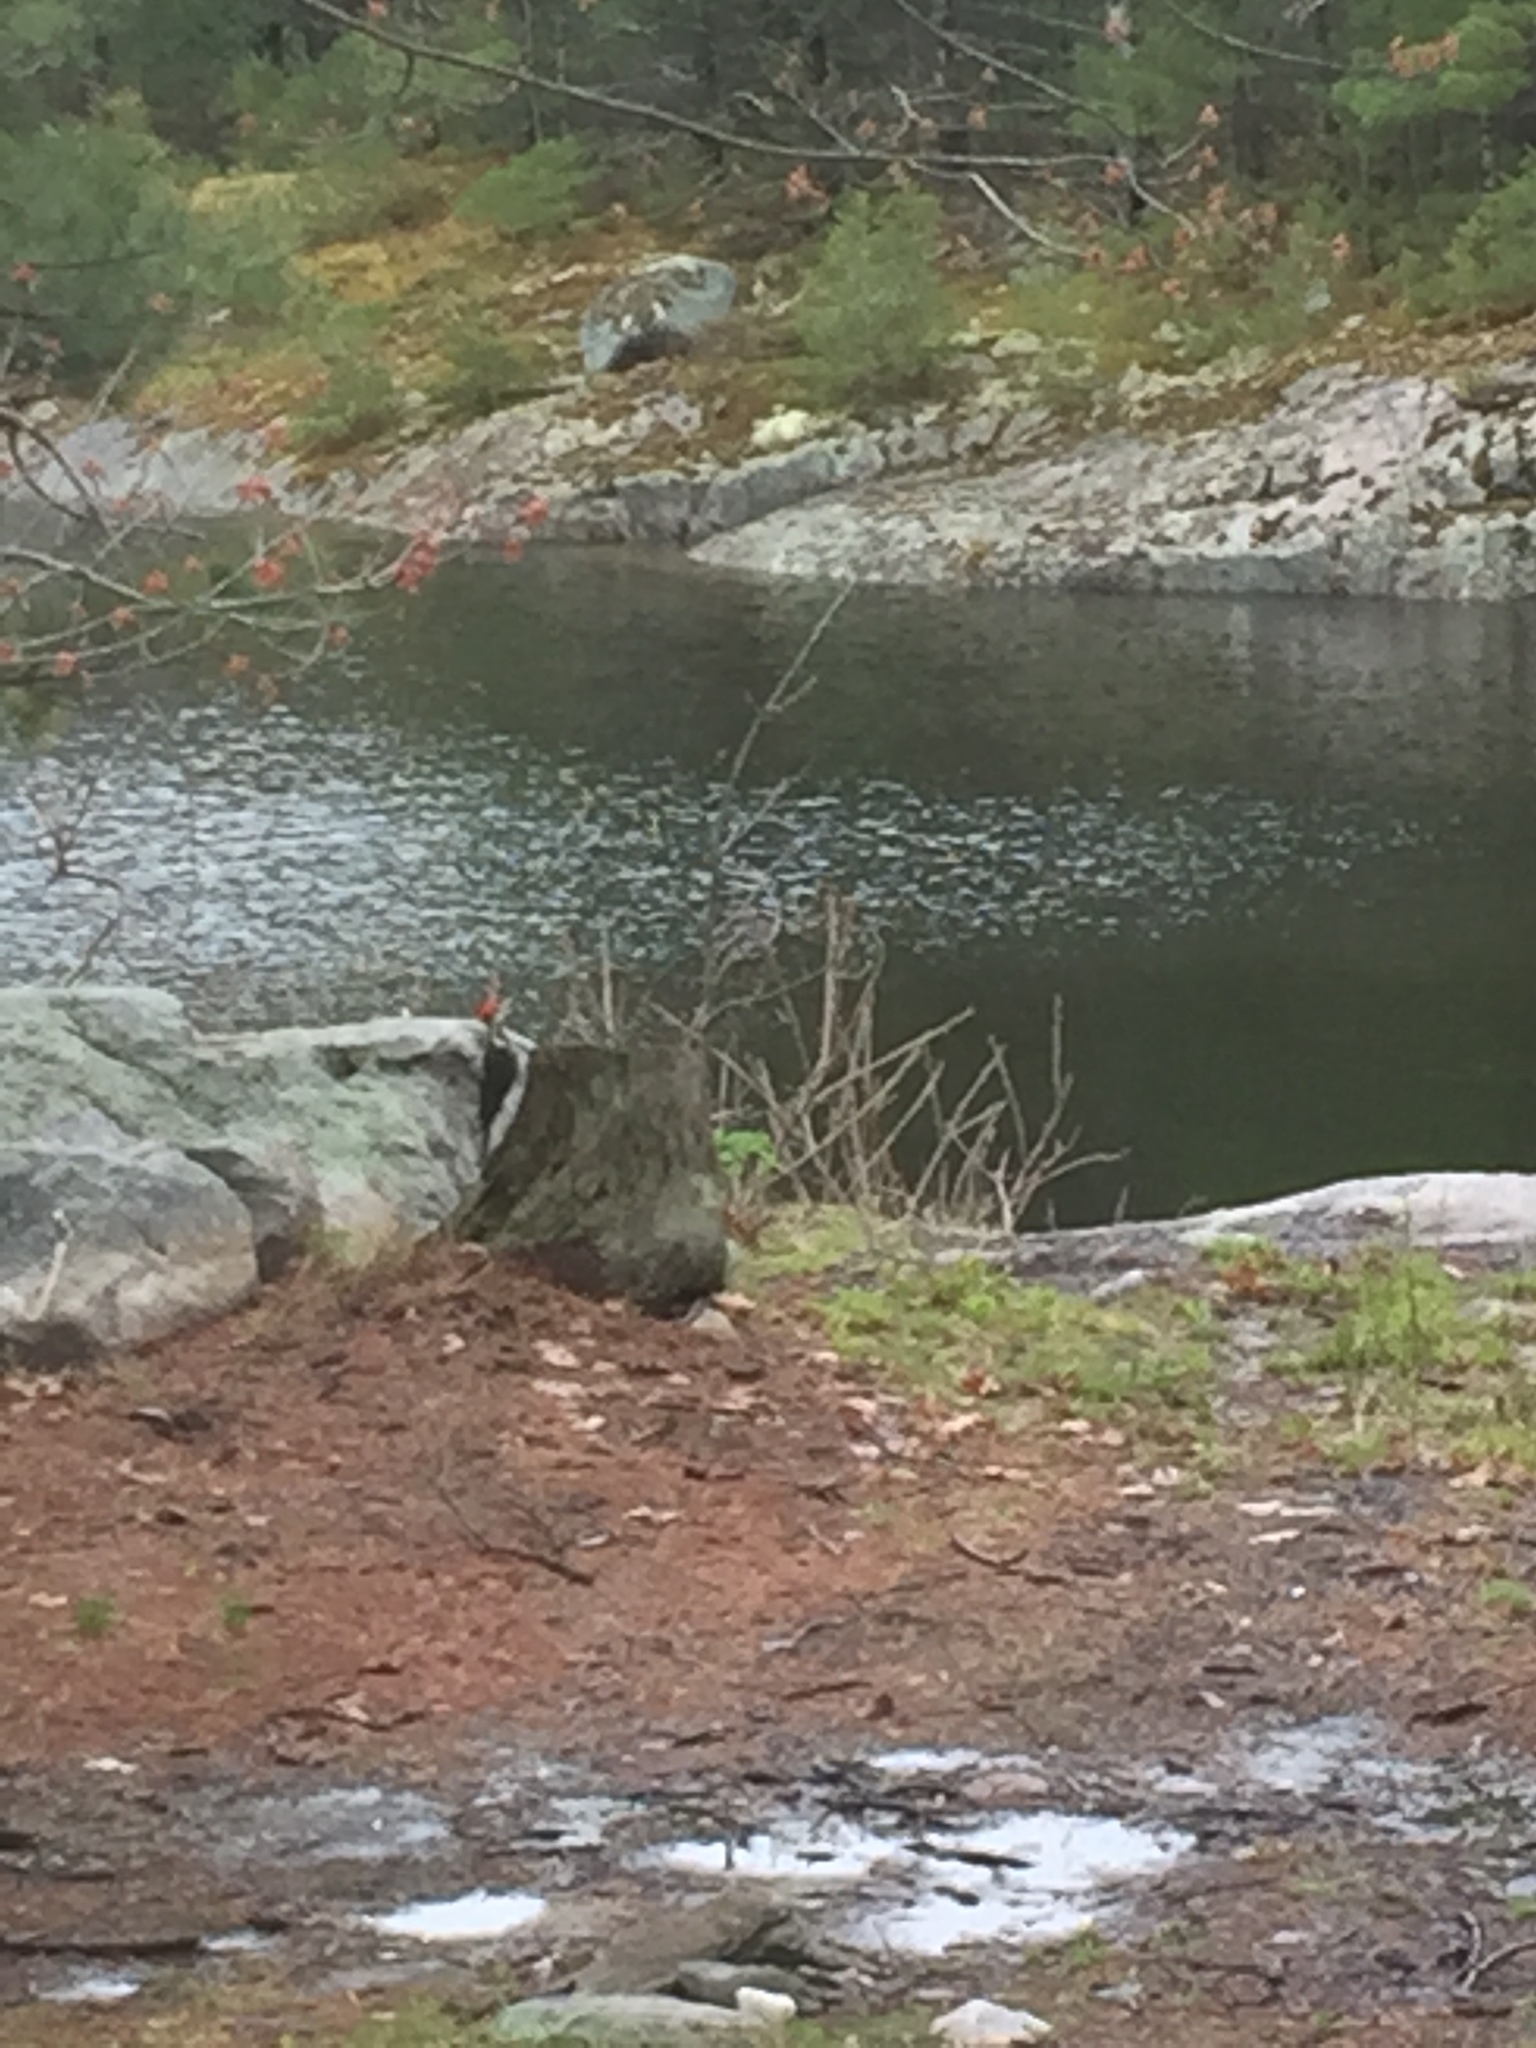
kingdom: Animalia
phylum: Chordata
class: Aves
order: Piciformes
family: Picidae
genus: Dryocopus
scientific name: Dryocopus pileatus
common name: Pileated woodpecker
